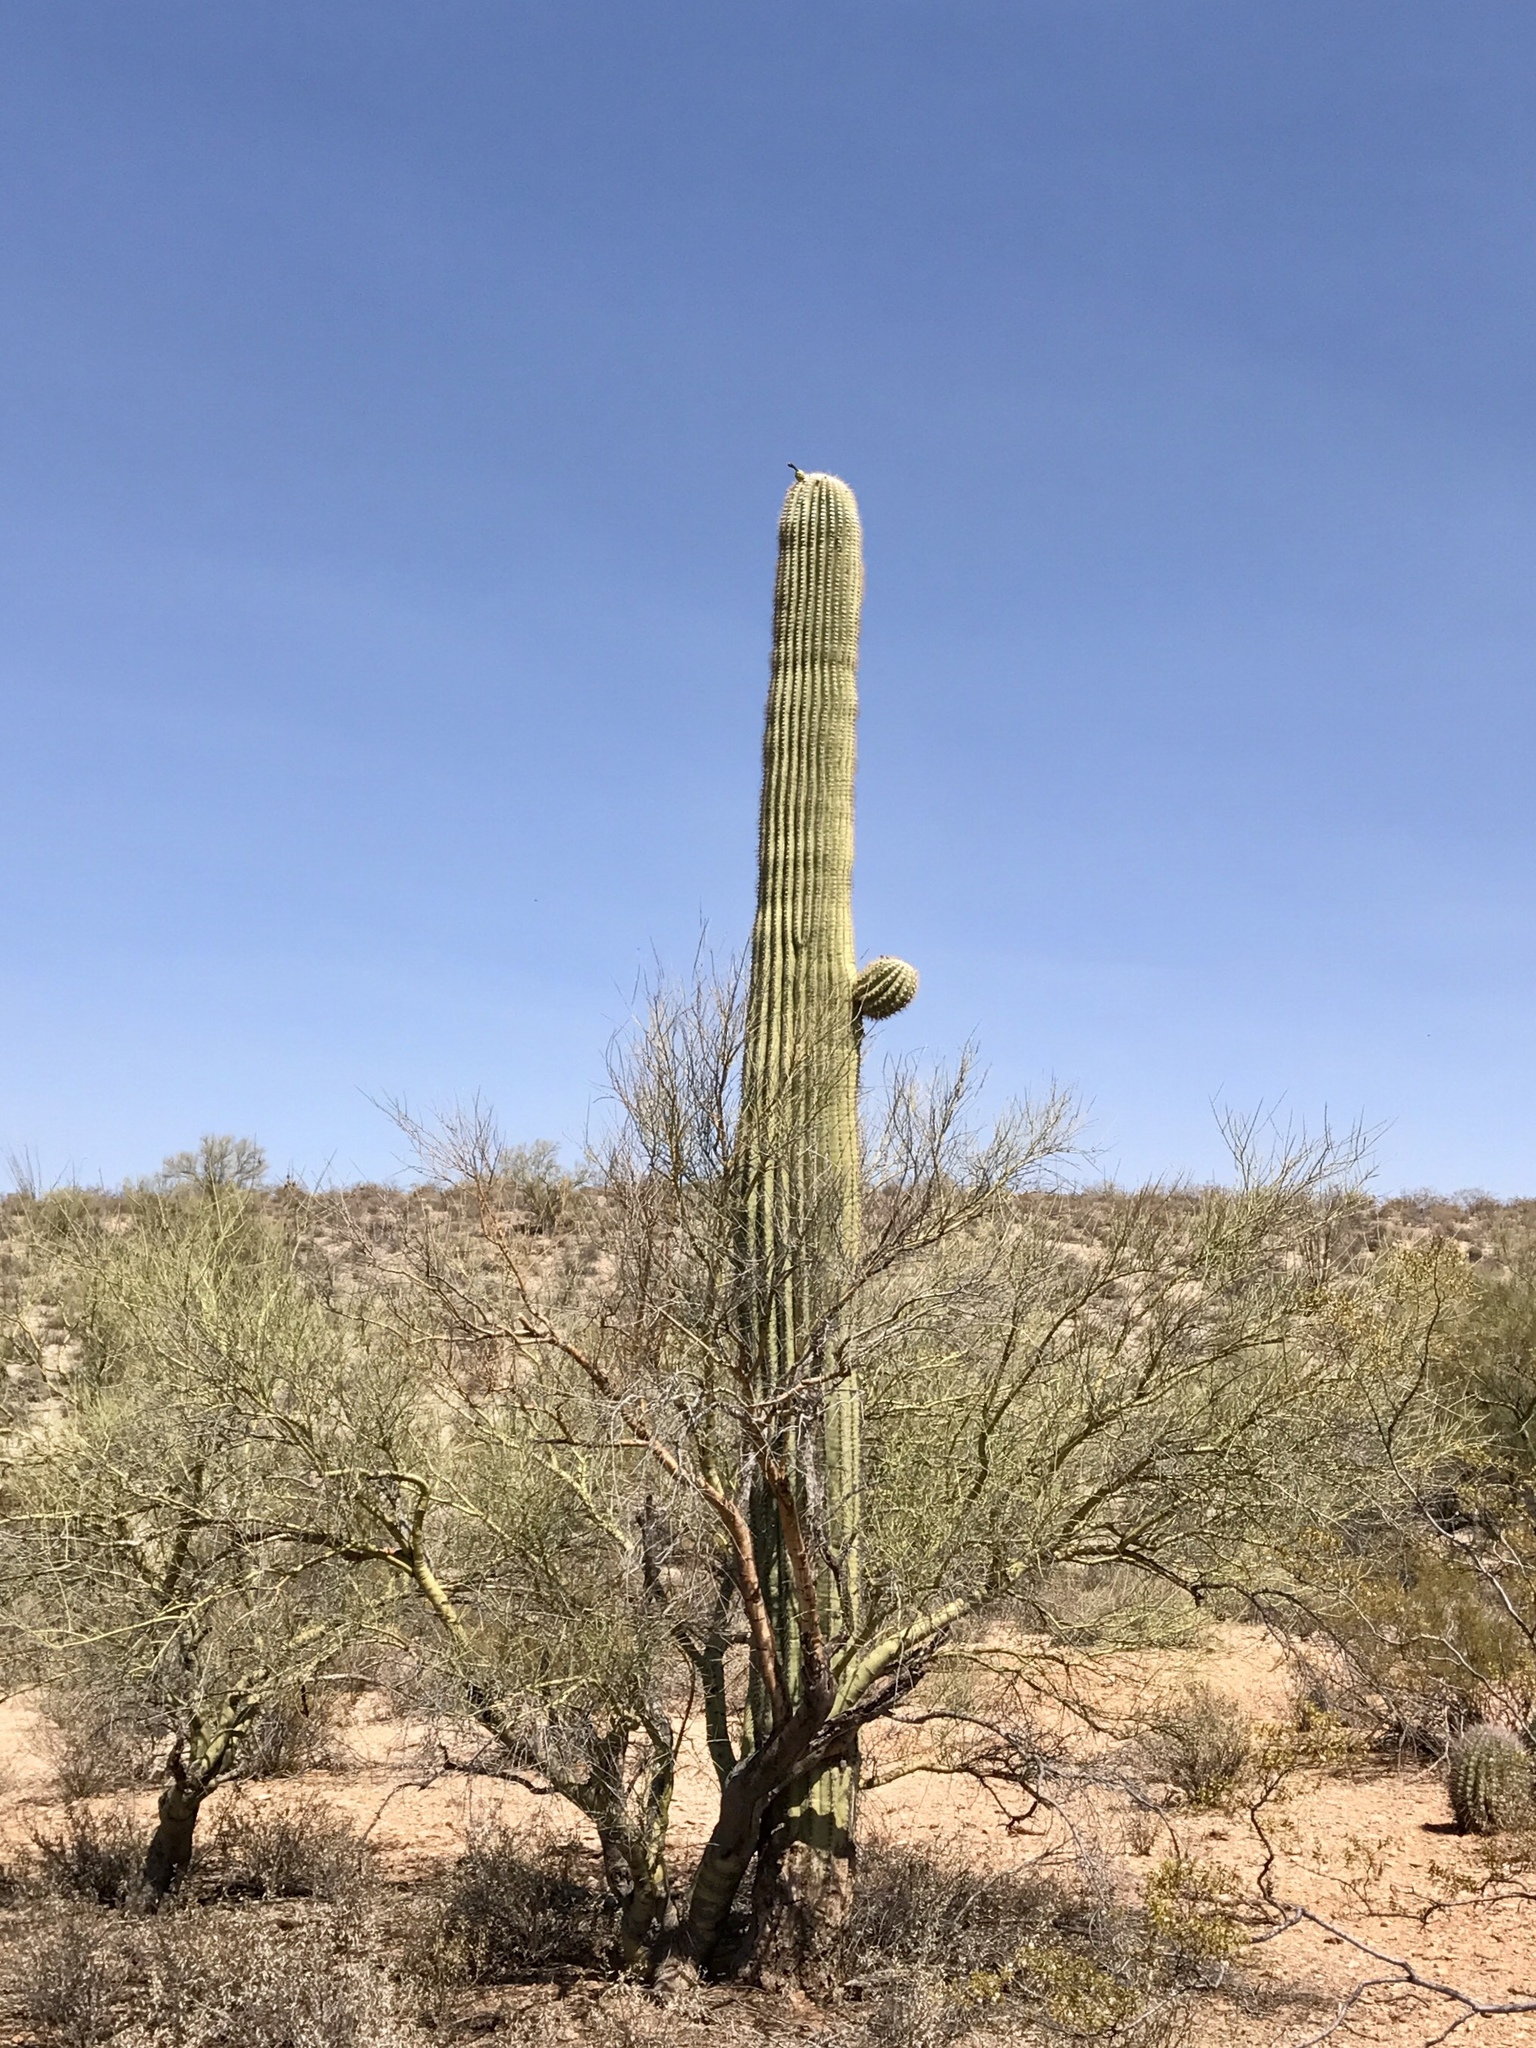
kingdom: Plantae
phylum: Tracheophyta
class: Magnoliopsida
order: Caryophyllales
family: Cactaceae
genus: Carnegiea
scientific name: Carnegiea gigantea
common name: Saguaro
